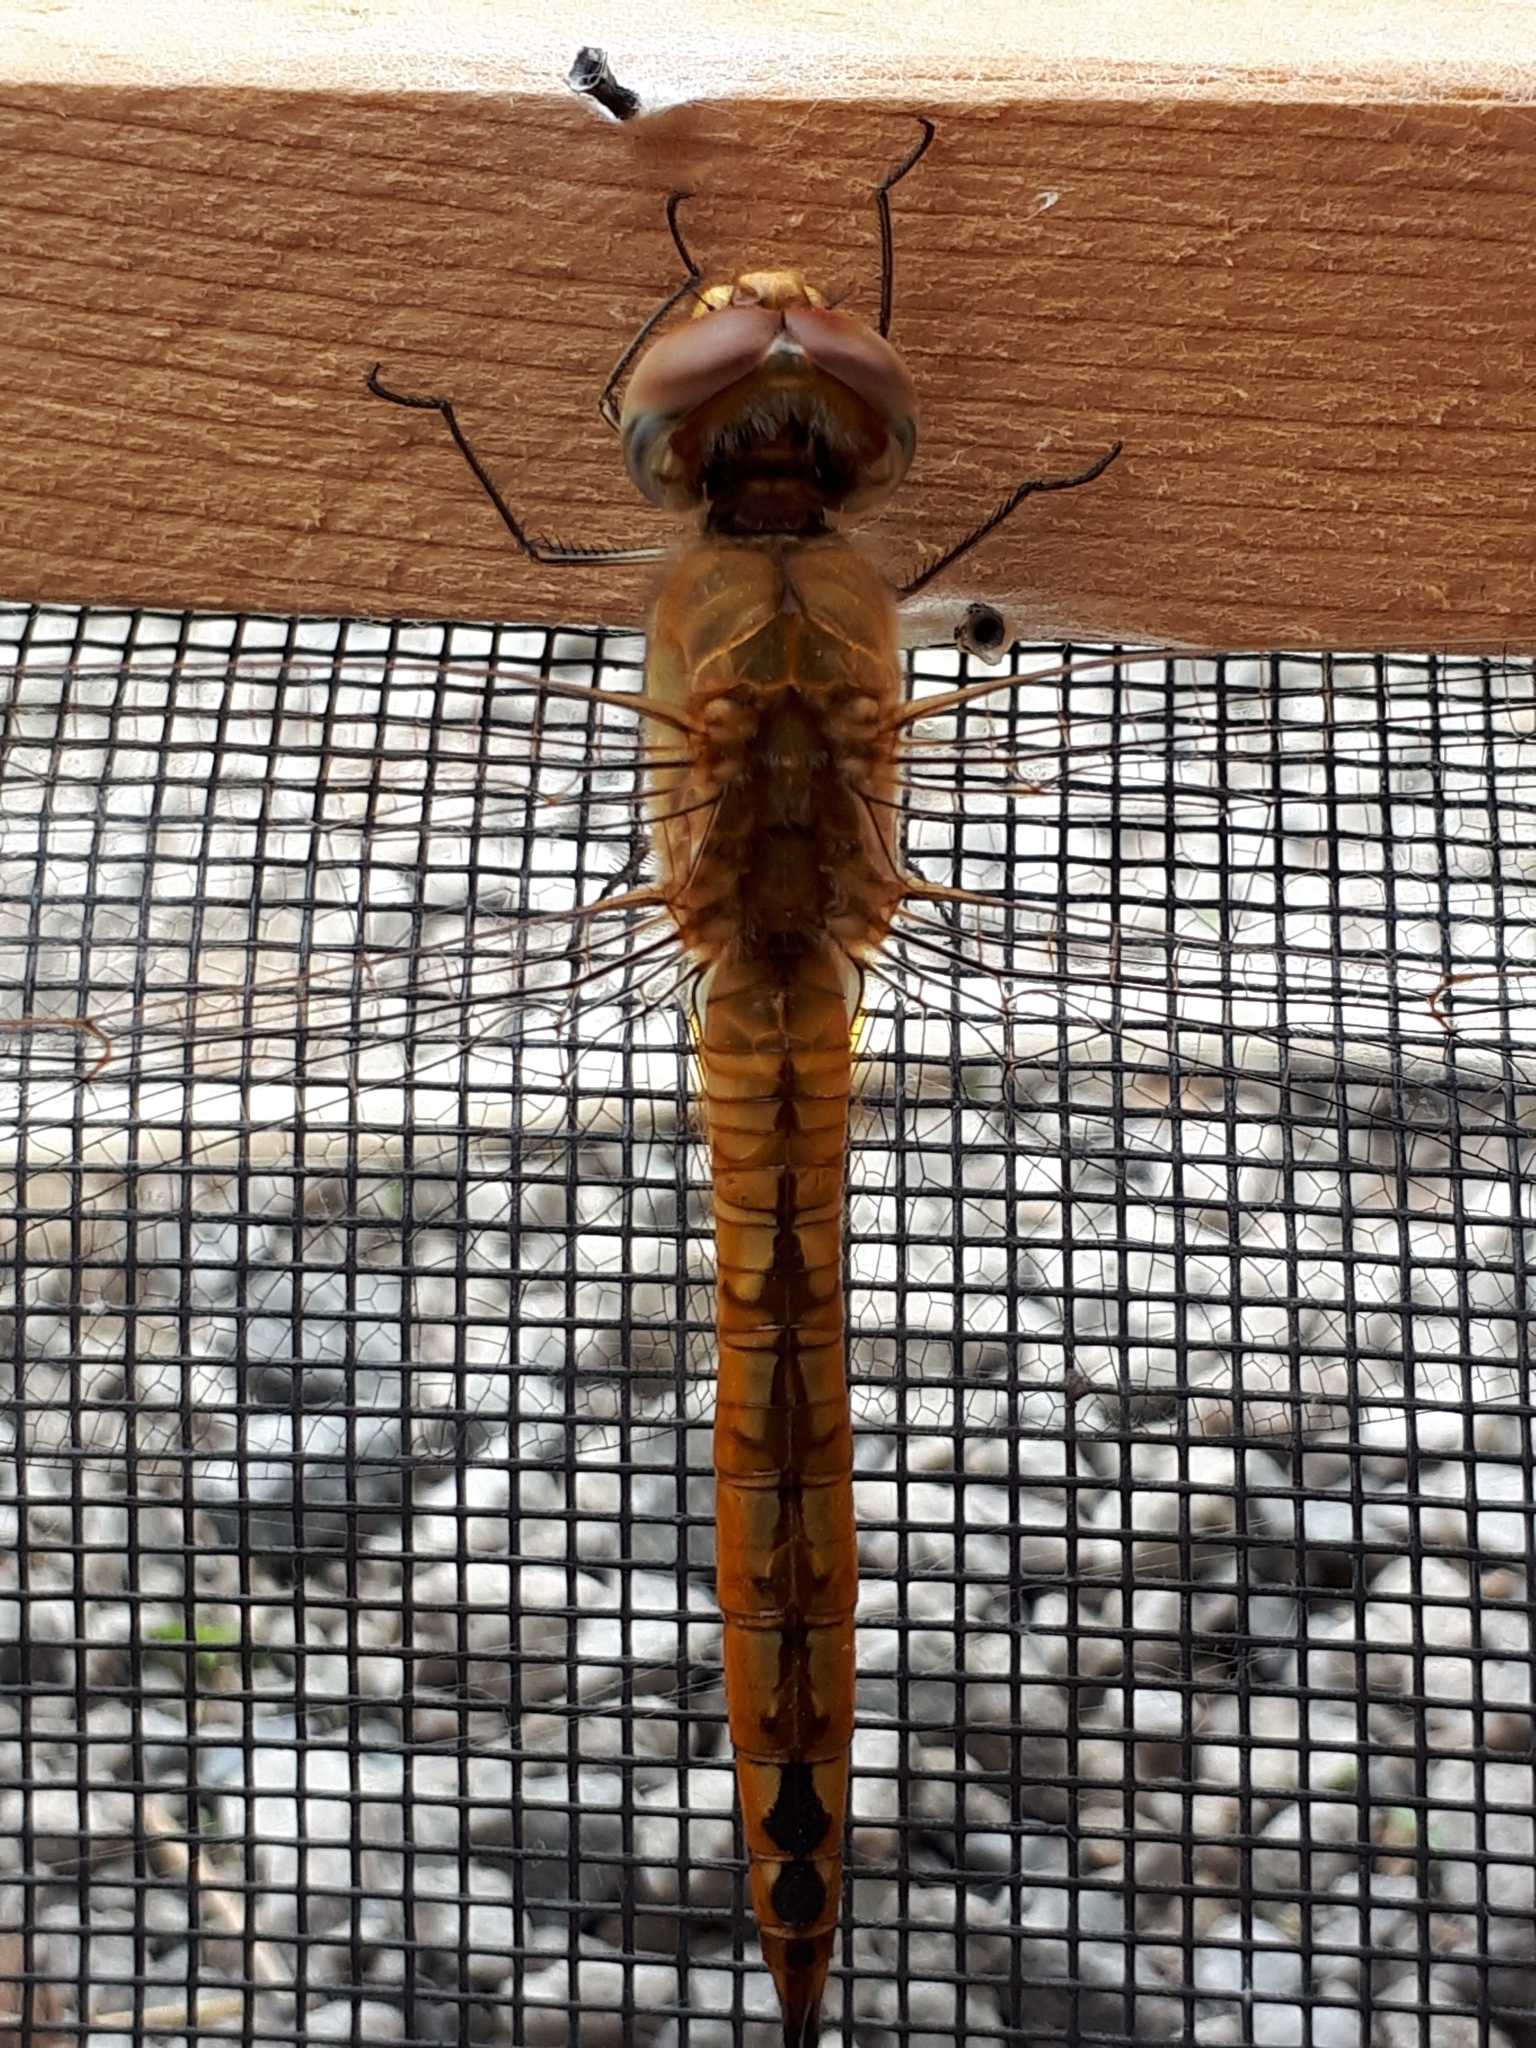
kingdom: Animalia
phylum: Arthropoda
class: Insecta
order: Odonata
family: Libellulidae
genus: Pantala
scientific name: Pantala flavescens
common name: Wandering glider
